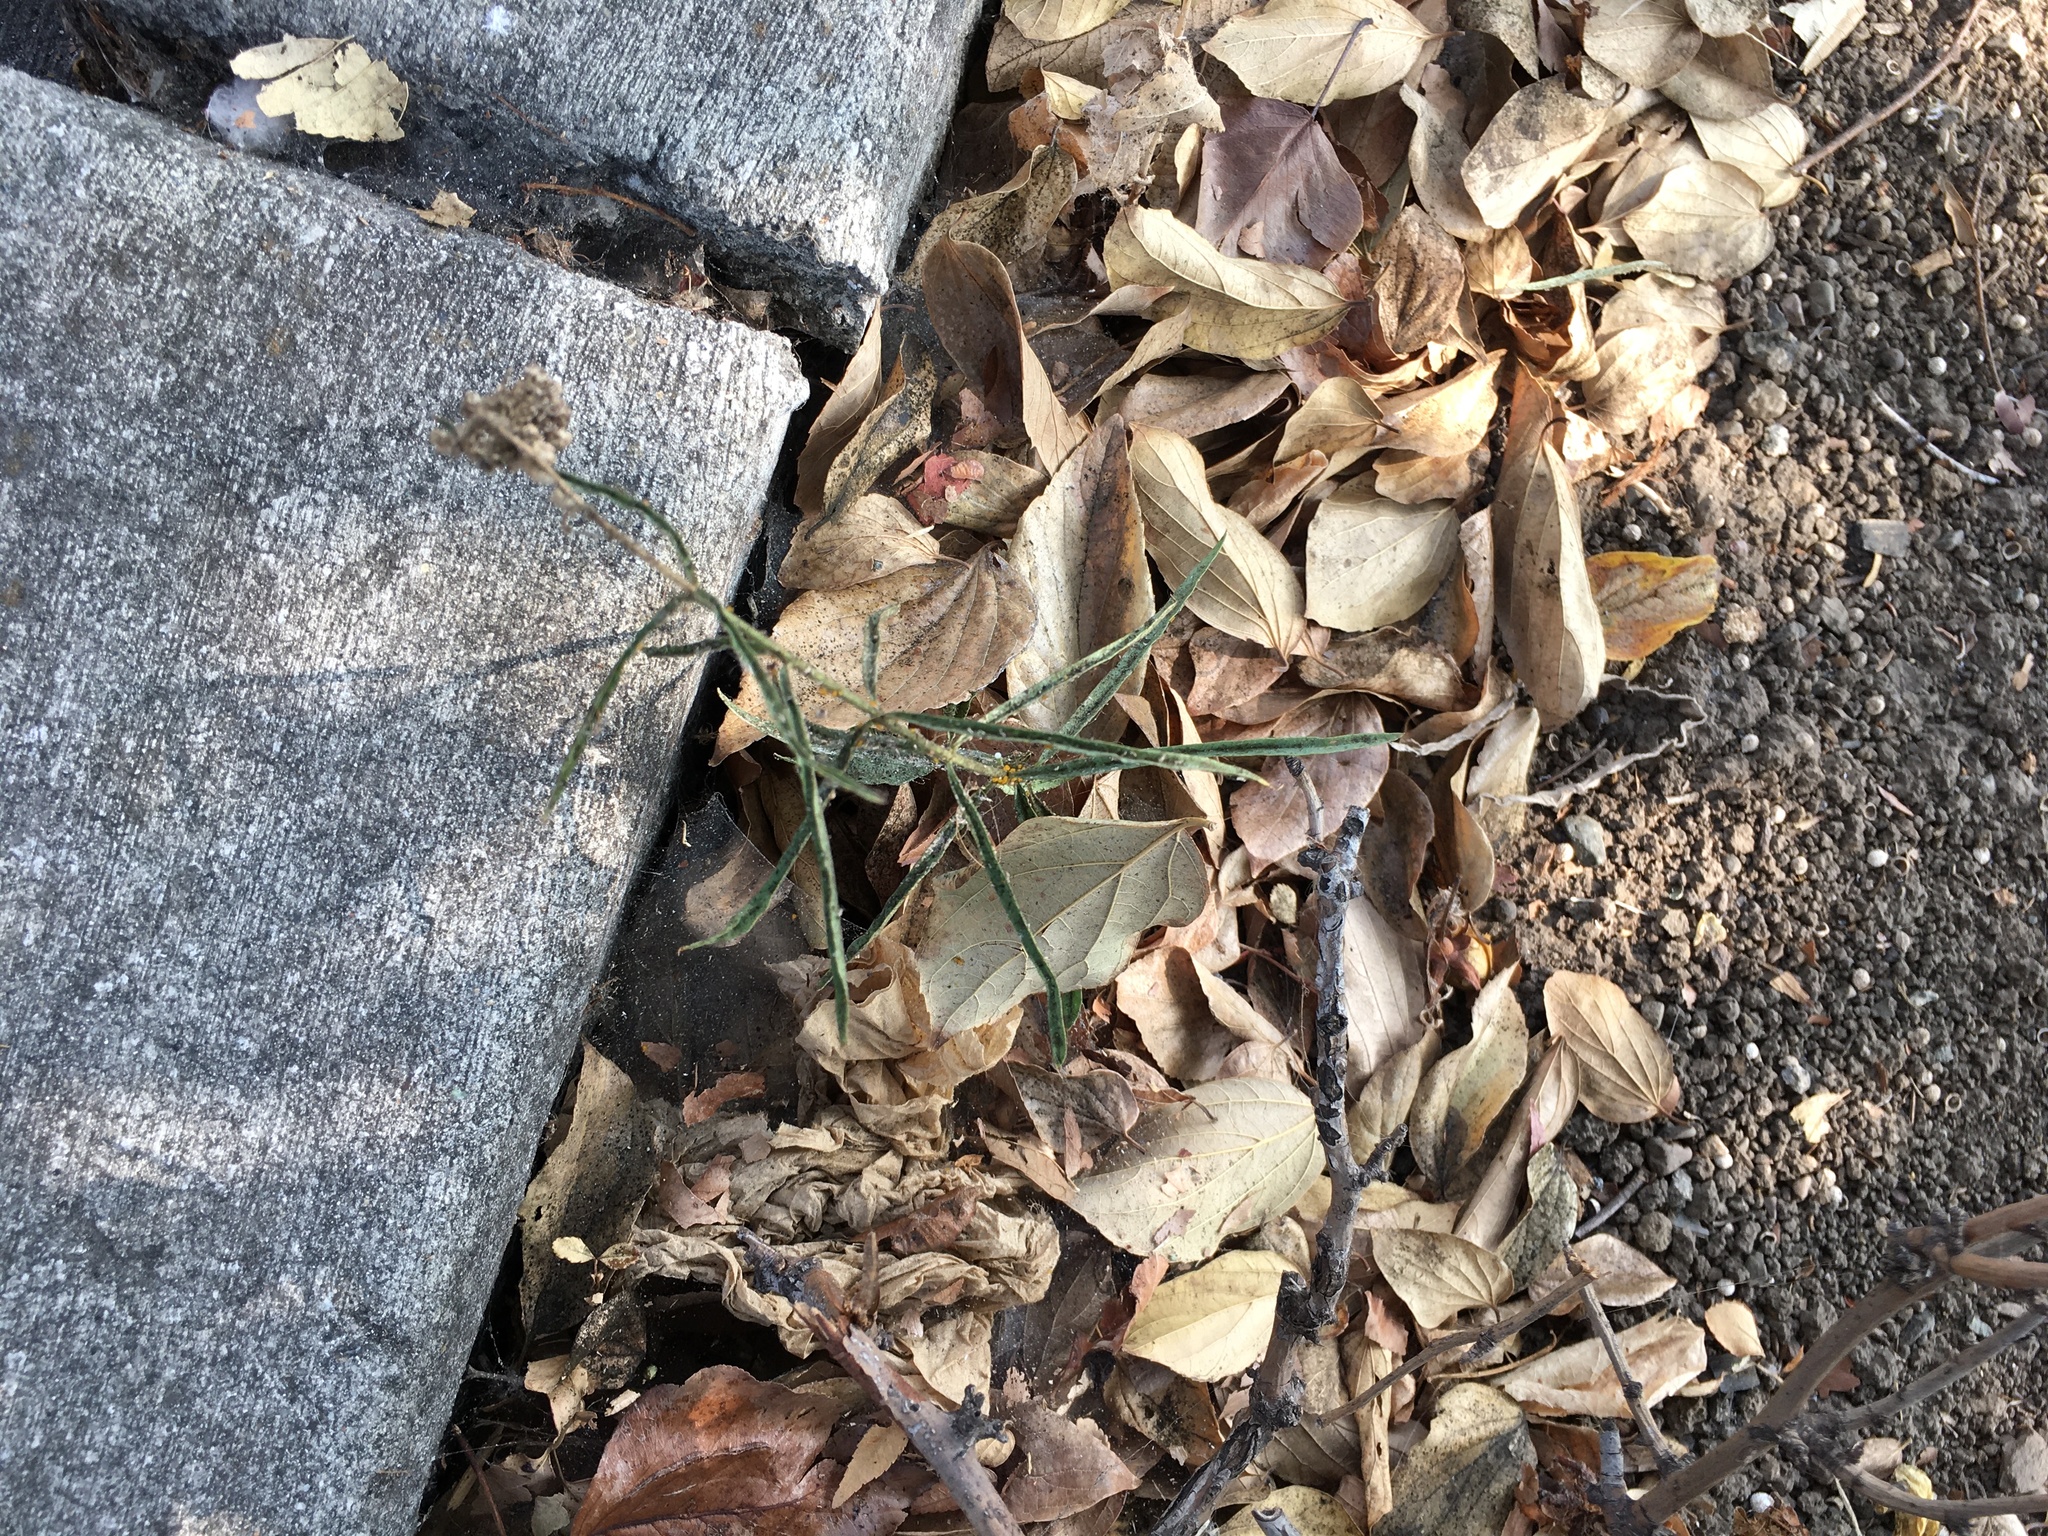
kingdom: Animalia
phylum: Arthropoda
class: Insecta
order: Hemiptera
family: Aphididae
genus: Aphis
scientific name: Aphis nerii
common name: Oleander aphid
